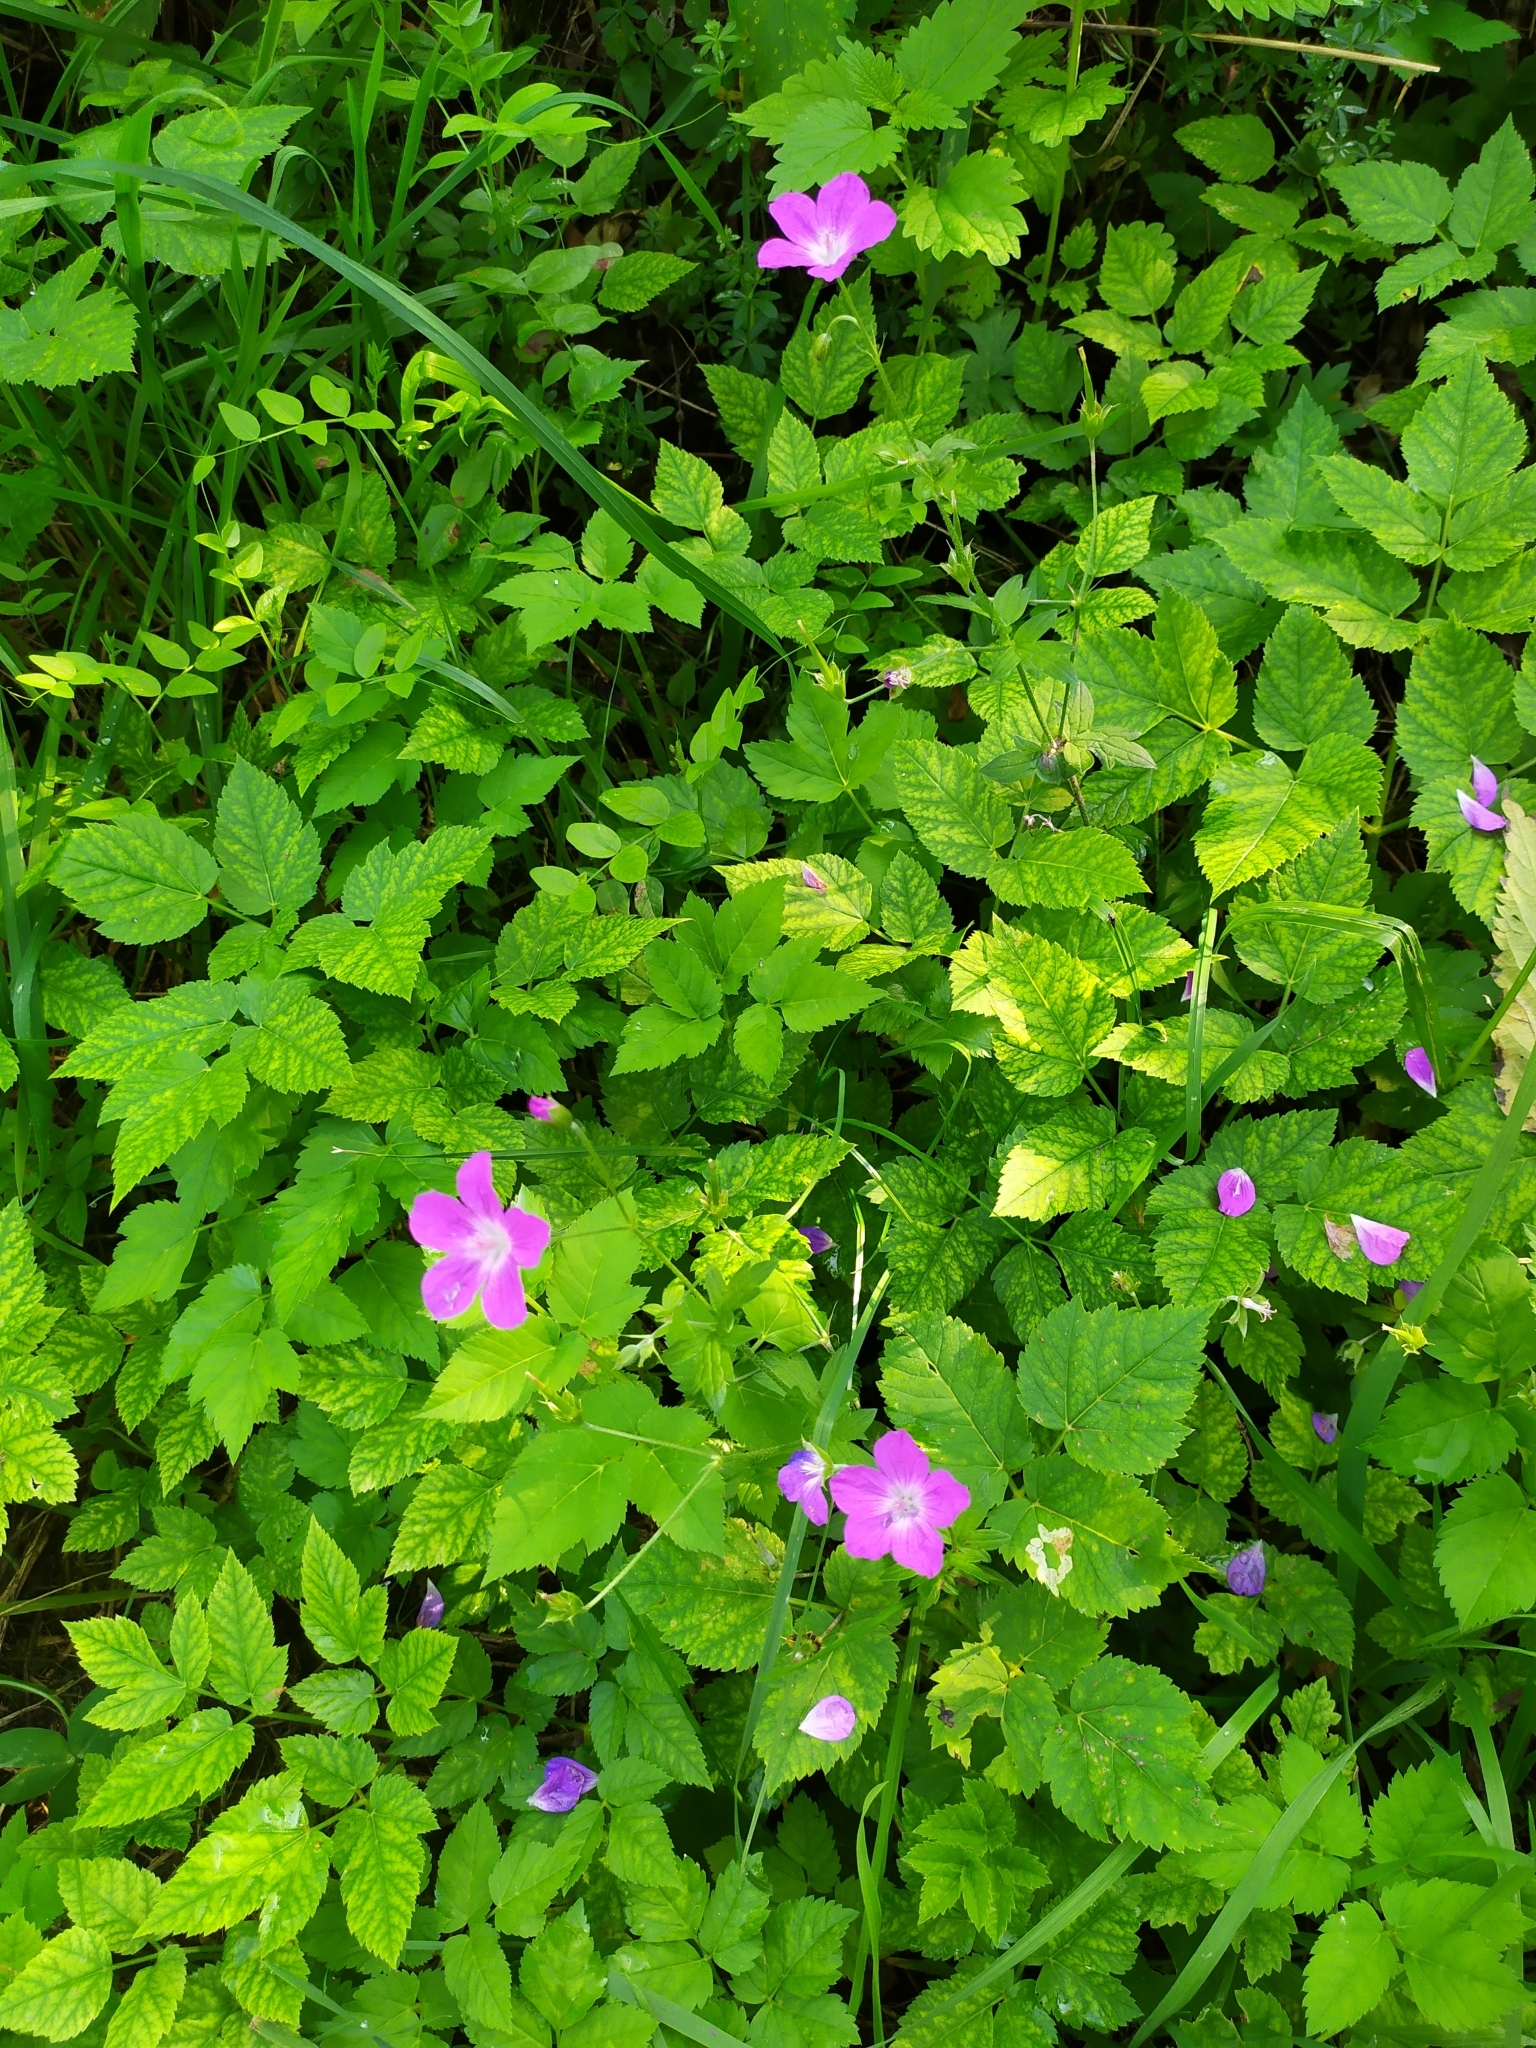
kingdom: Plantae
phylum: Tracheophyta
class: Magnoliopsida
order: Geraniales
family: Geraniaceae
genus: Geranium
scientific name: Geranium palustre
